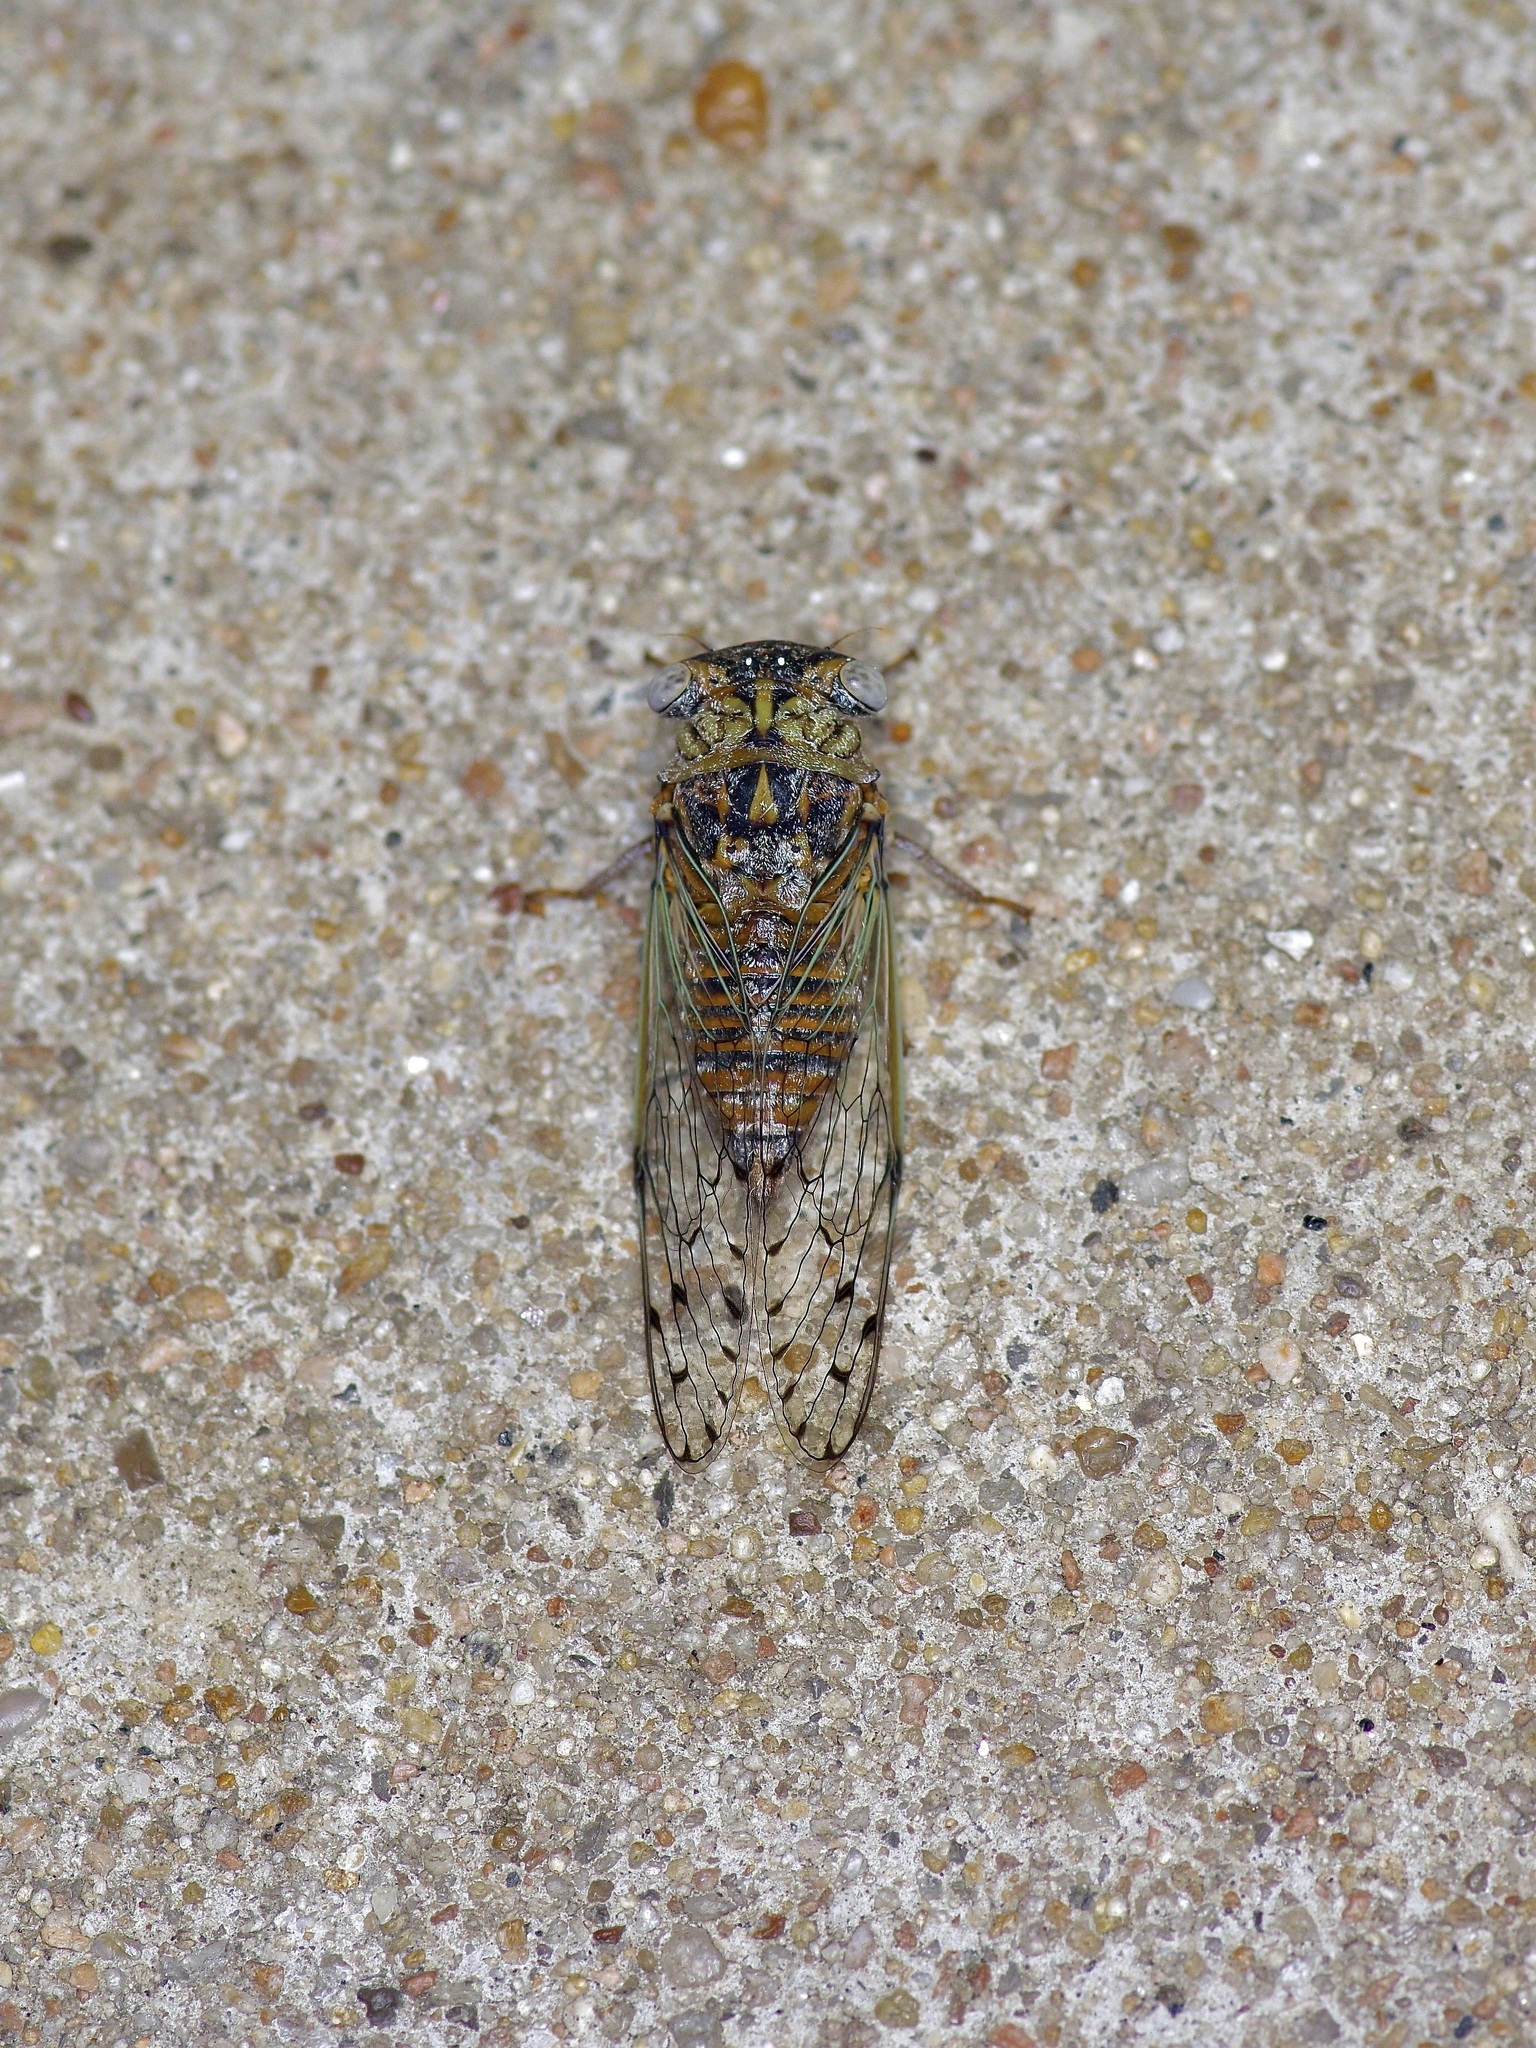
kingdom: Animalia
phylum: Arthropoda
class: Insecta
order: Hemiptera
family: Cicadidae
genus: Pacarina
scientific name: Pacarina puella
